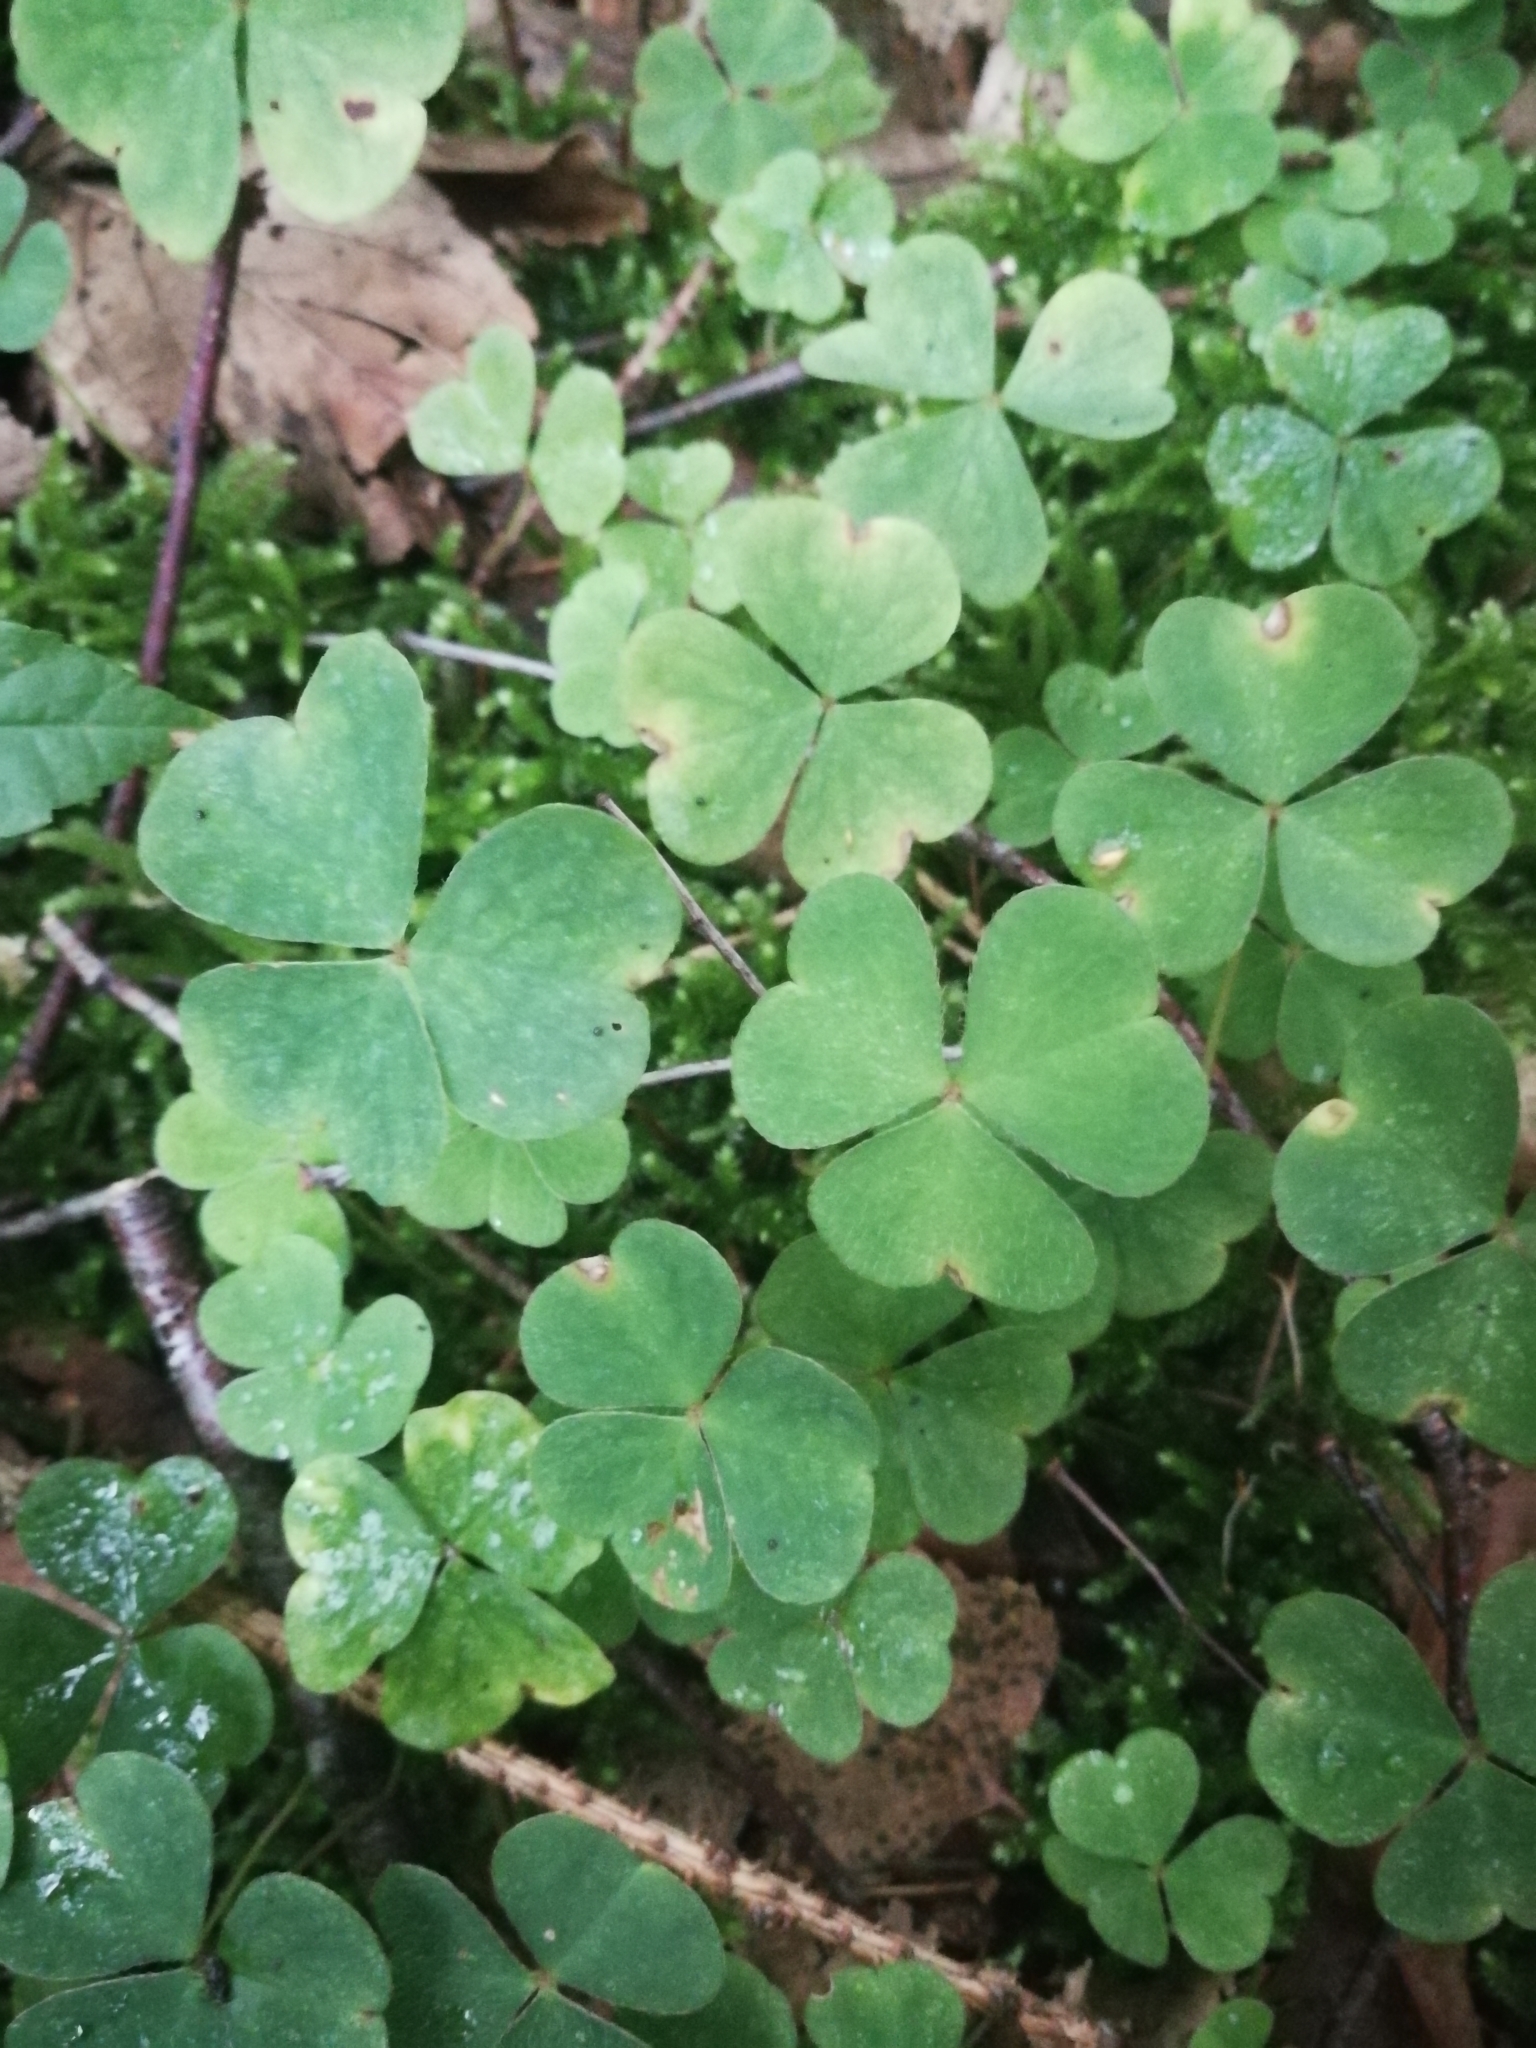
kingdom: Plantae
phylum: Tracheophyta
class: Magnoliopsida
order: Oxalidales
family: Oxalidaceae
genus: Oxalis
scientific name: Oxalis acetosella
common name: Wood-sorrel
